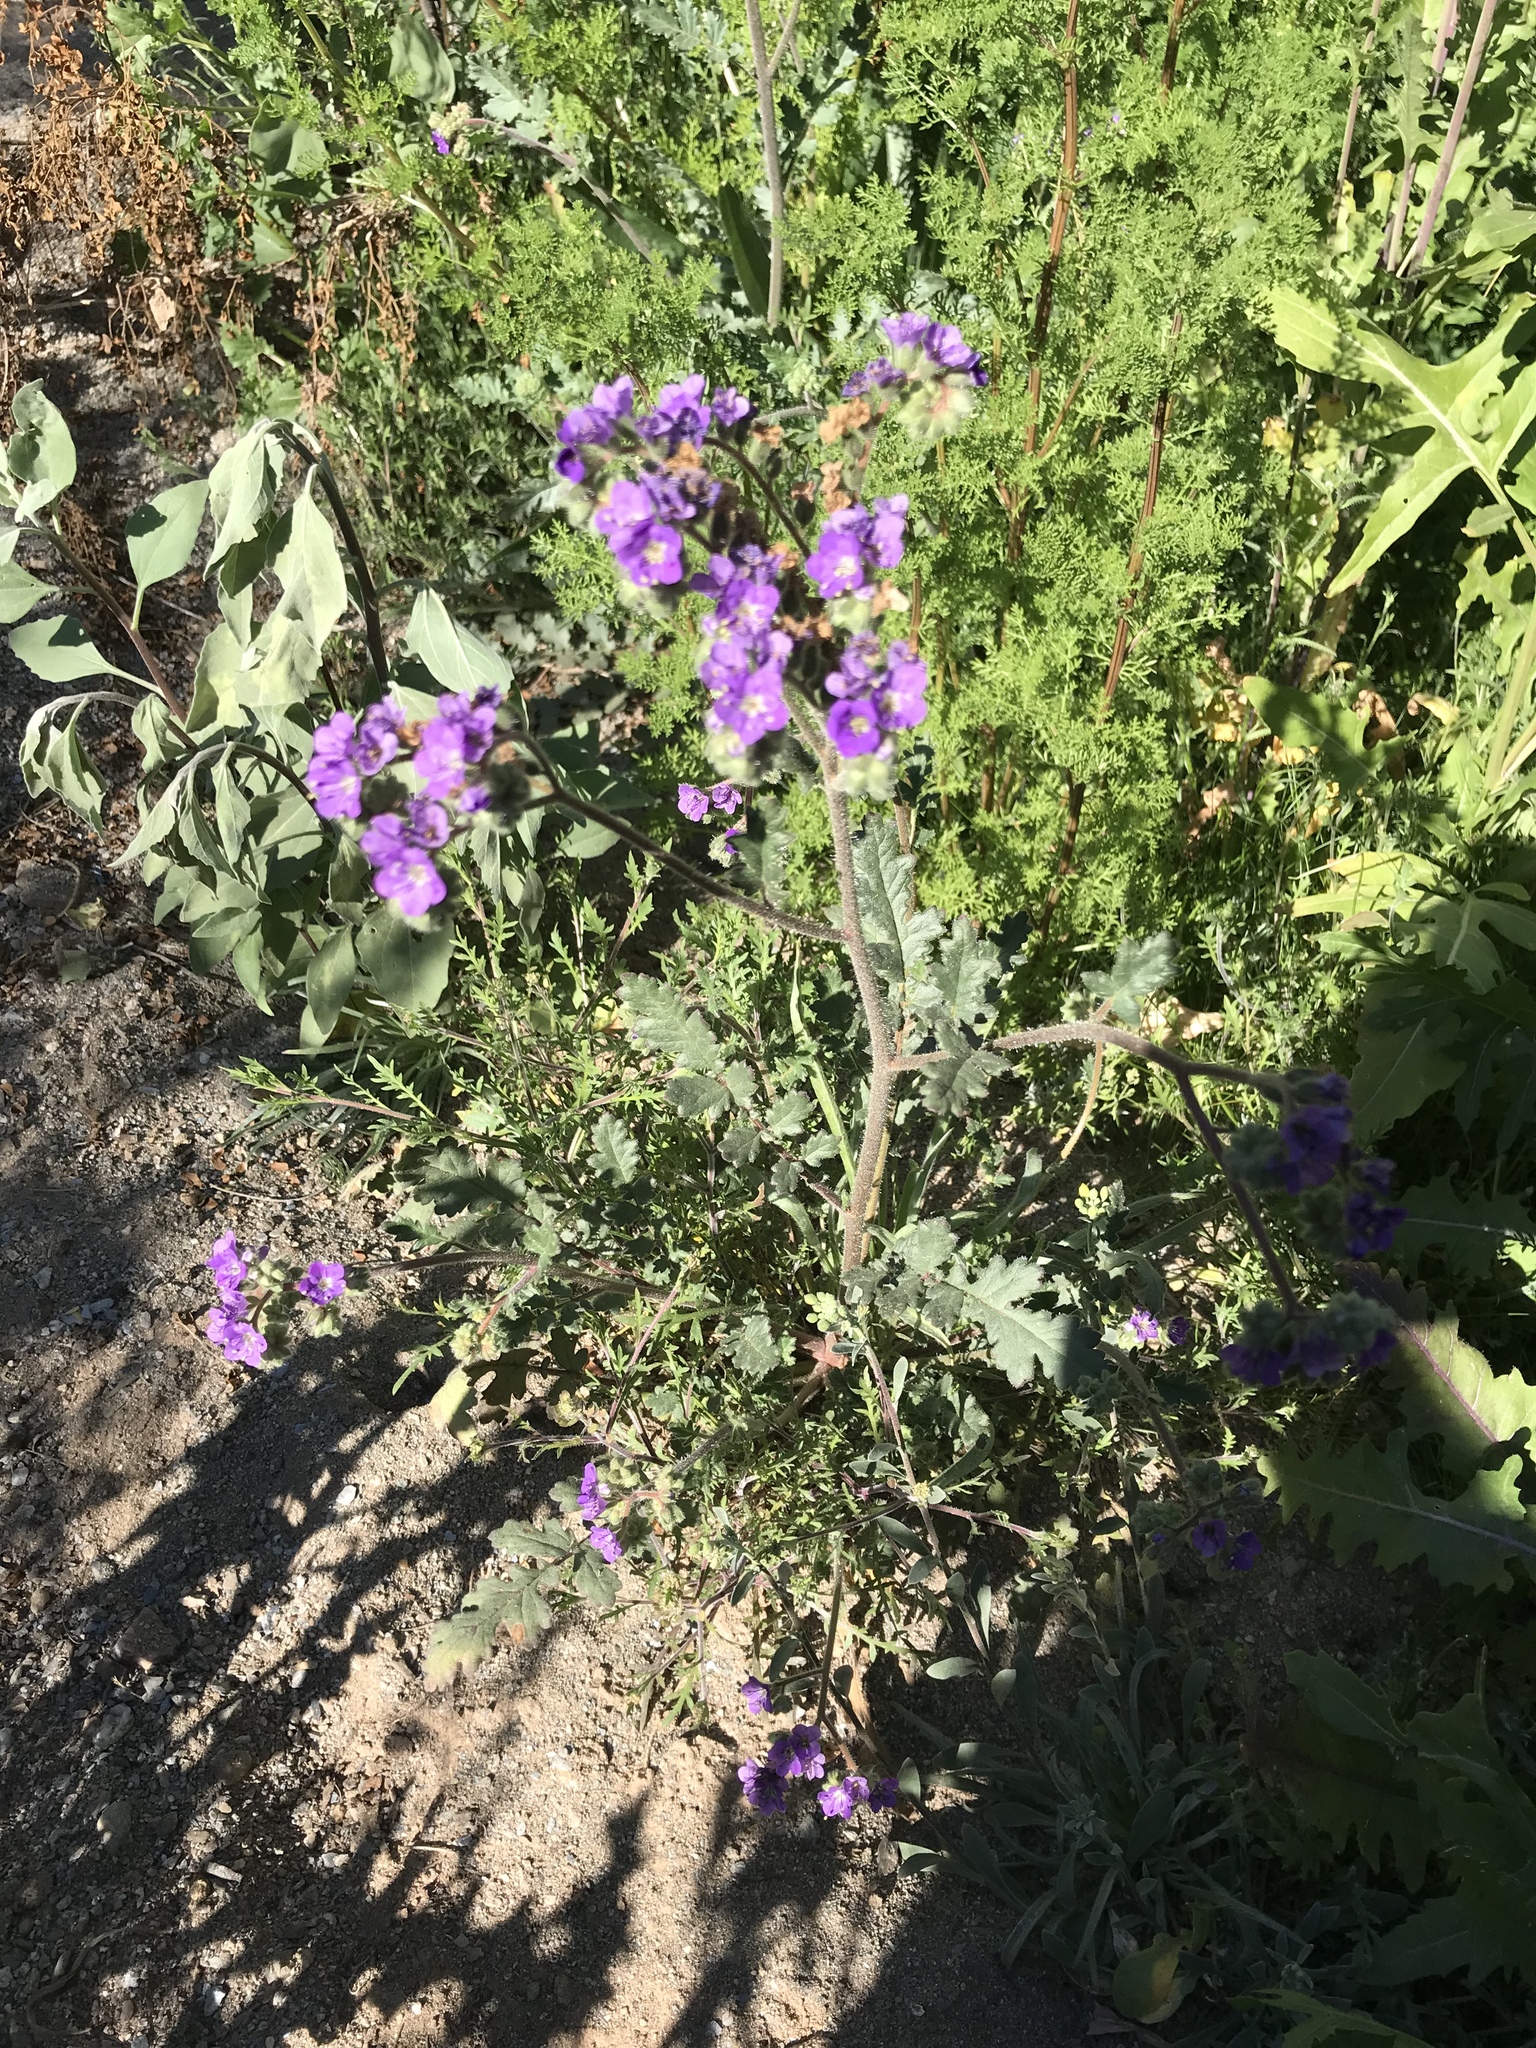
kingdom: Plantae
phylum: Tracheophyta
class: Magnoliopsida
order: Boraginales
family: Hydrophyllaceae
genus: Phacelia
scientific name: Phacelia crenulata
